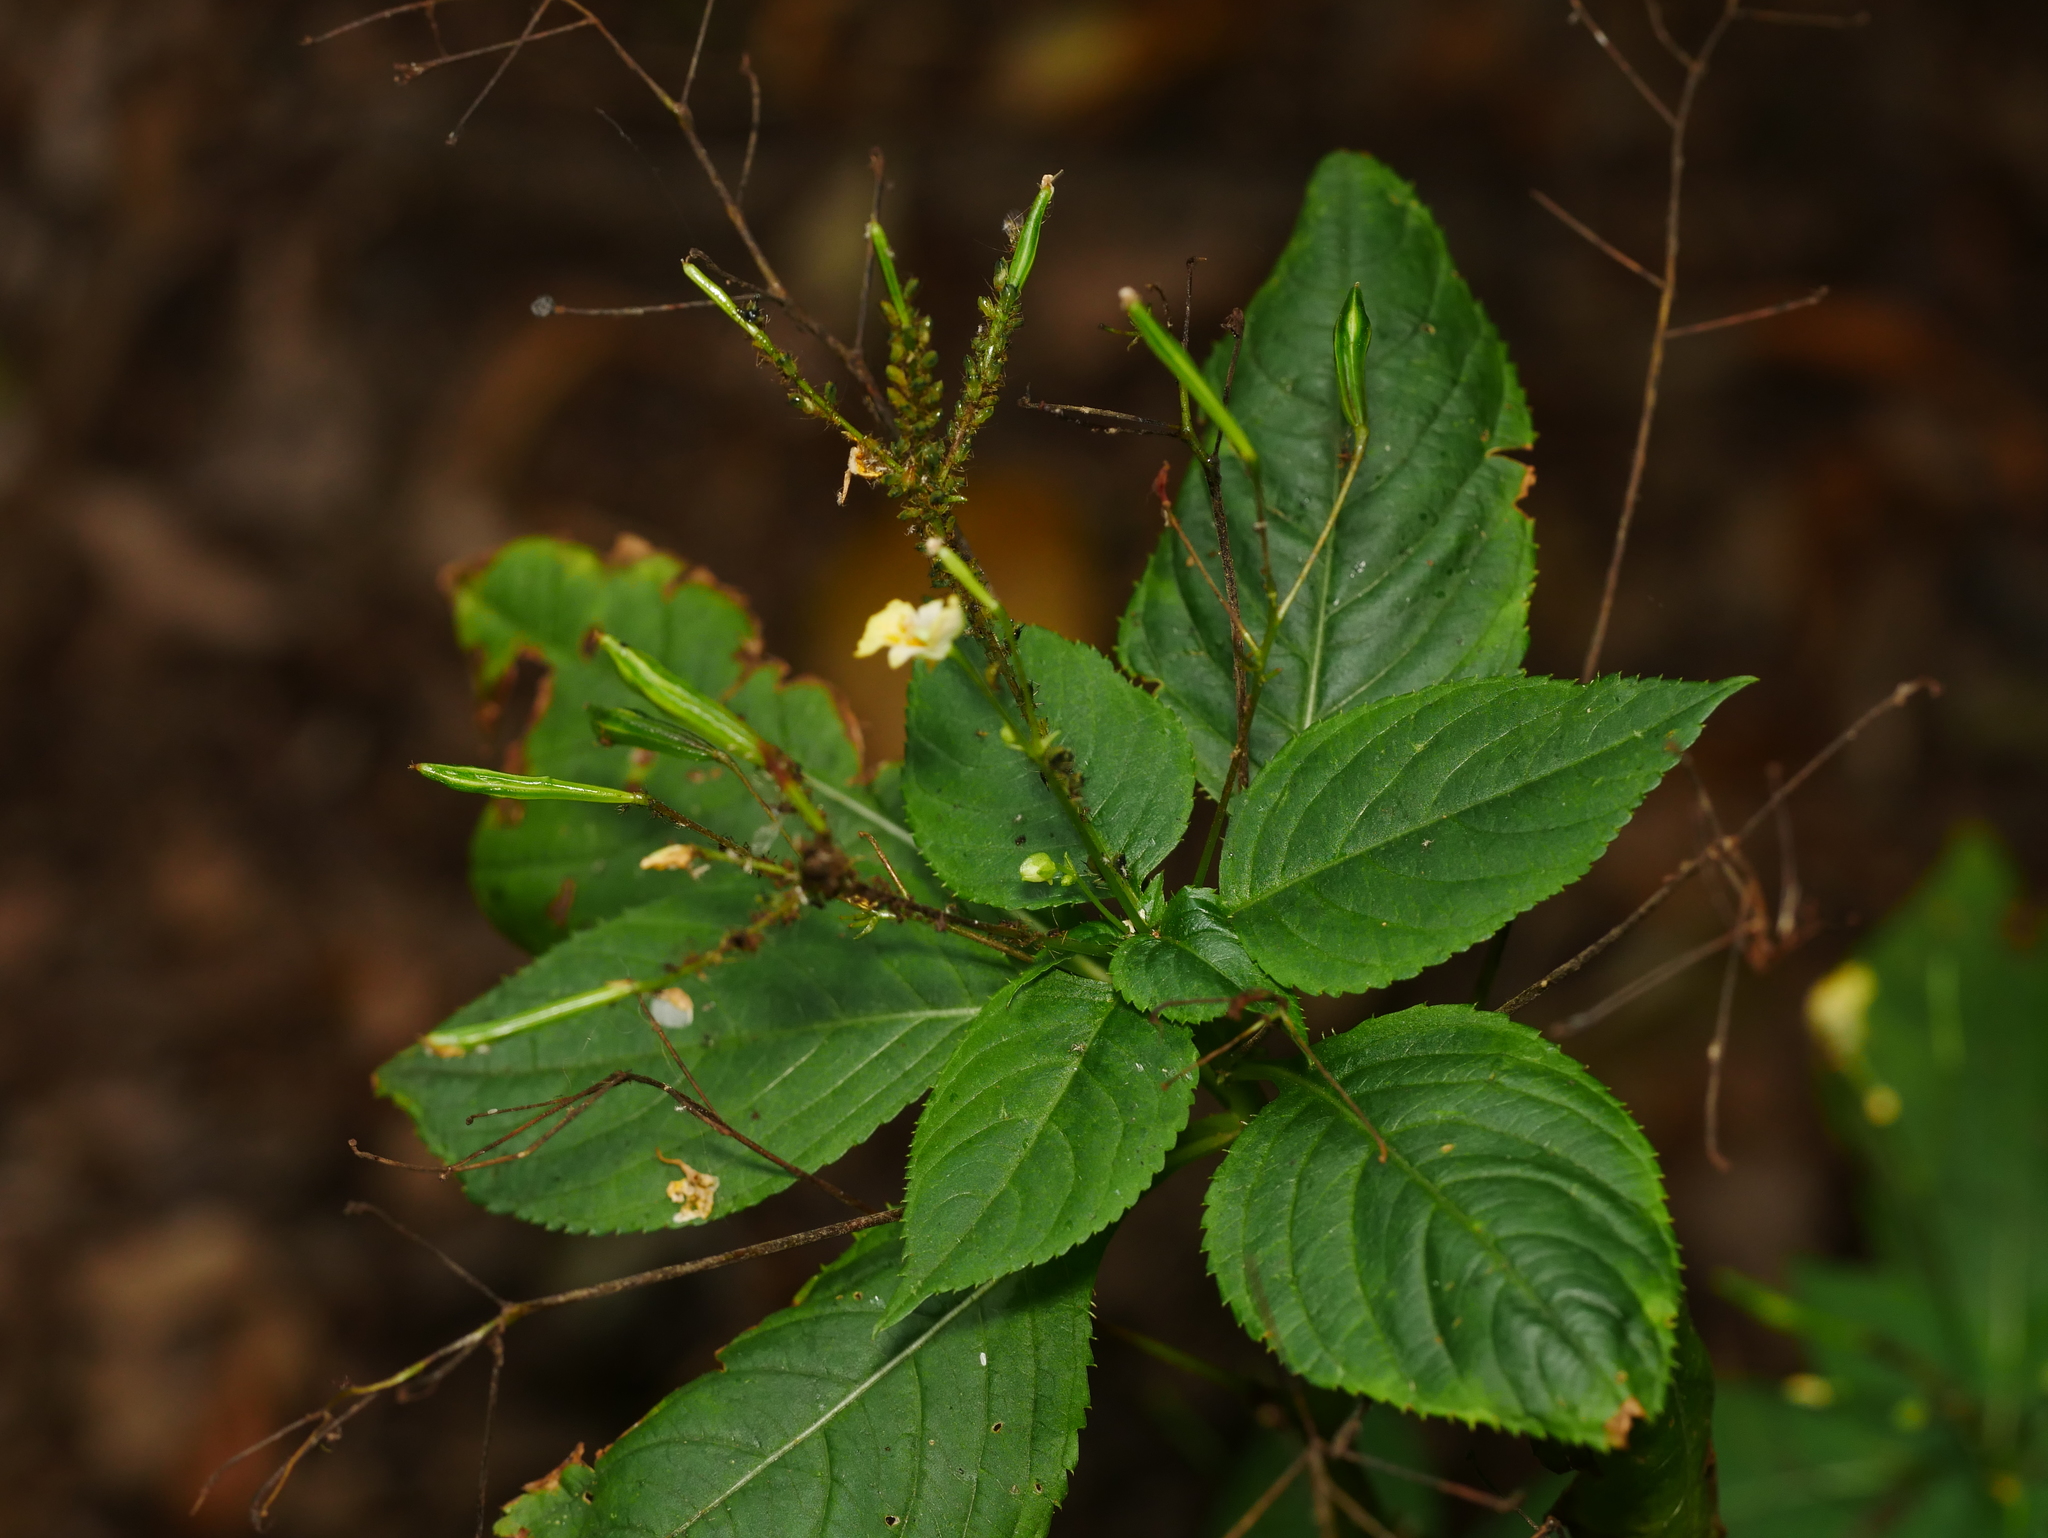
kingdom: Plantae
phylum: Tracheophyta
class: Magnoliopsida
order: Ericales
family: Balsaminaceae
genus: Impatiens
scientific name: Impatiens parviflora
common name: Small balsam
